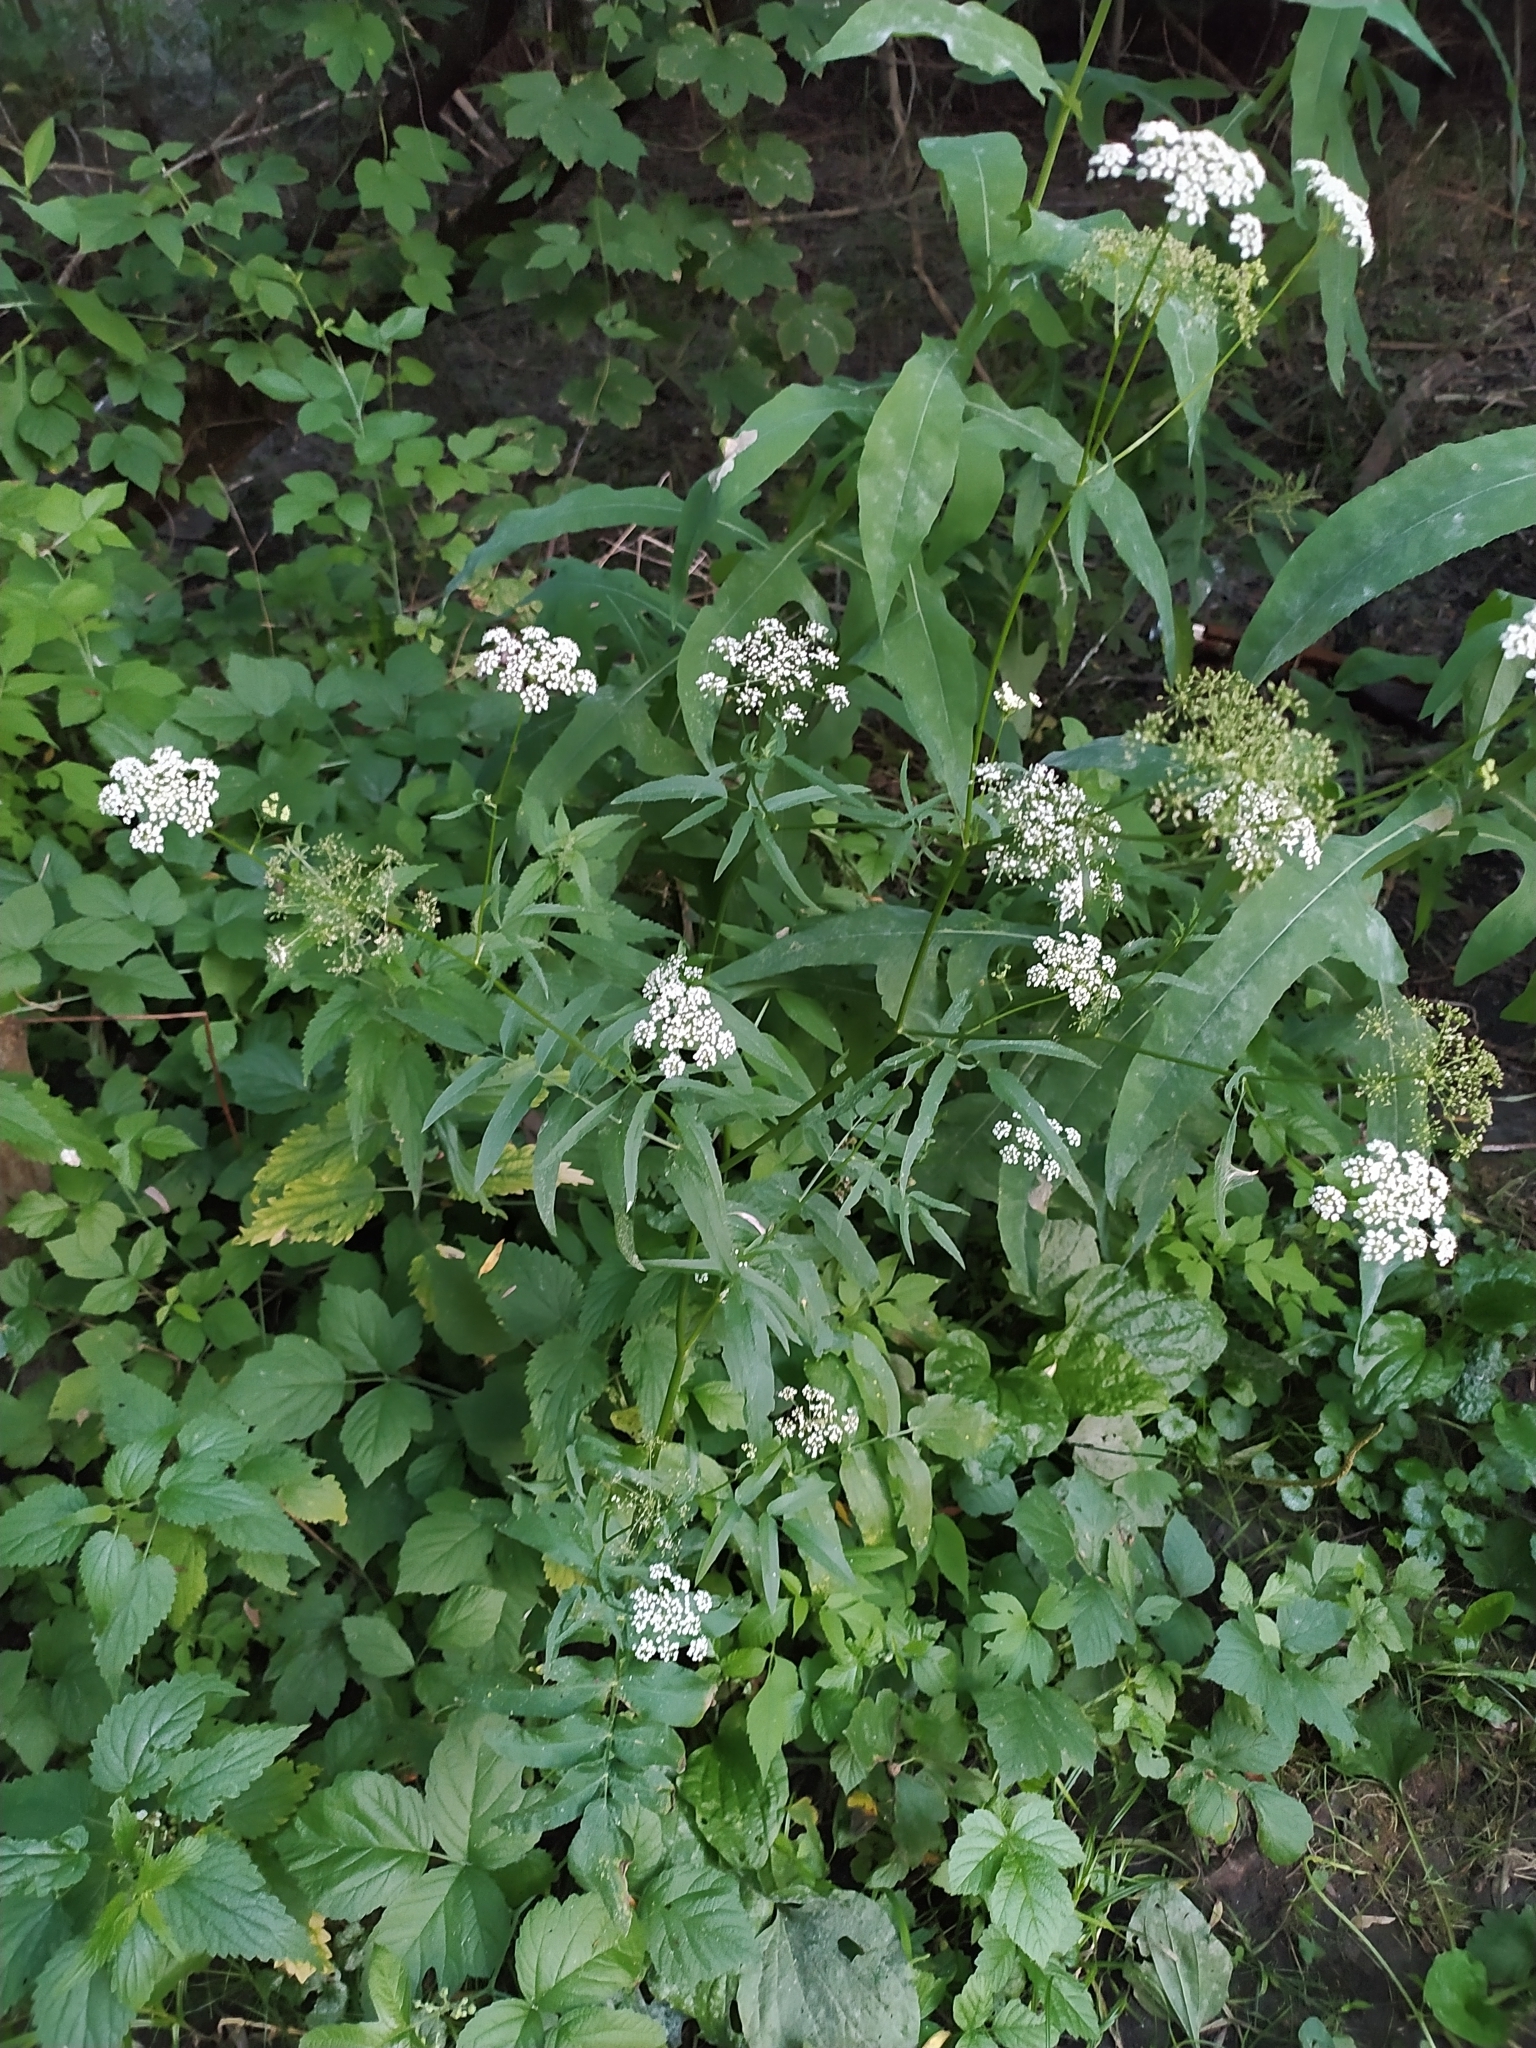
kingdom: Plantae
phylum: Tracheophyta
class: Magnoliopsida
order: Apiales
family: Apiaceae
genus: Sium
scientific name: Sium sisarum
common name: Skirret
